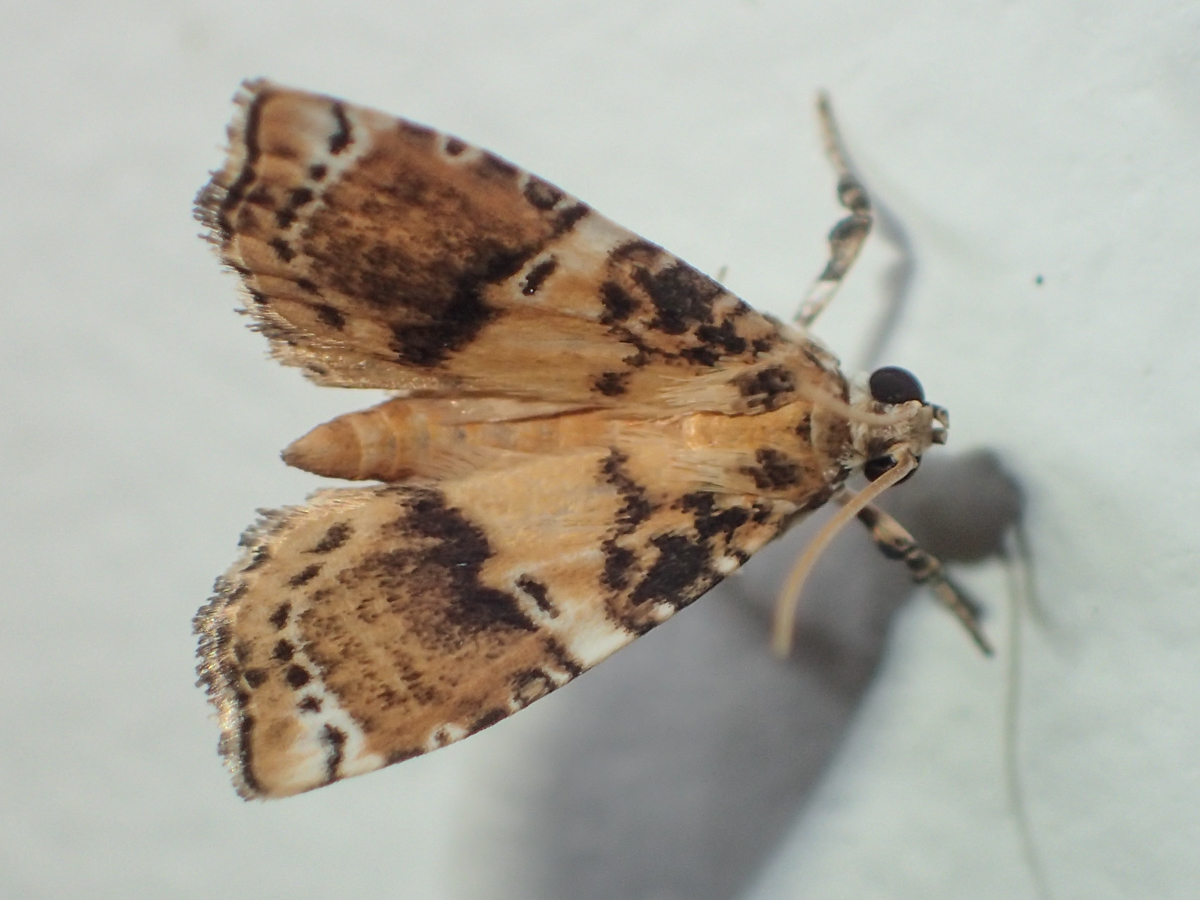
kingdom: Animalia
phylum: Arthropoda
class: Insecta
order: Lepidoptera
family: Crambidae
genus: Tabidia
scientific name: Tabidia inconsequens
